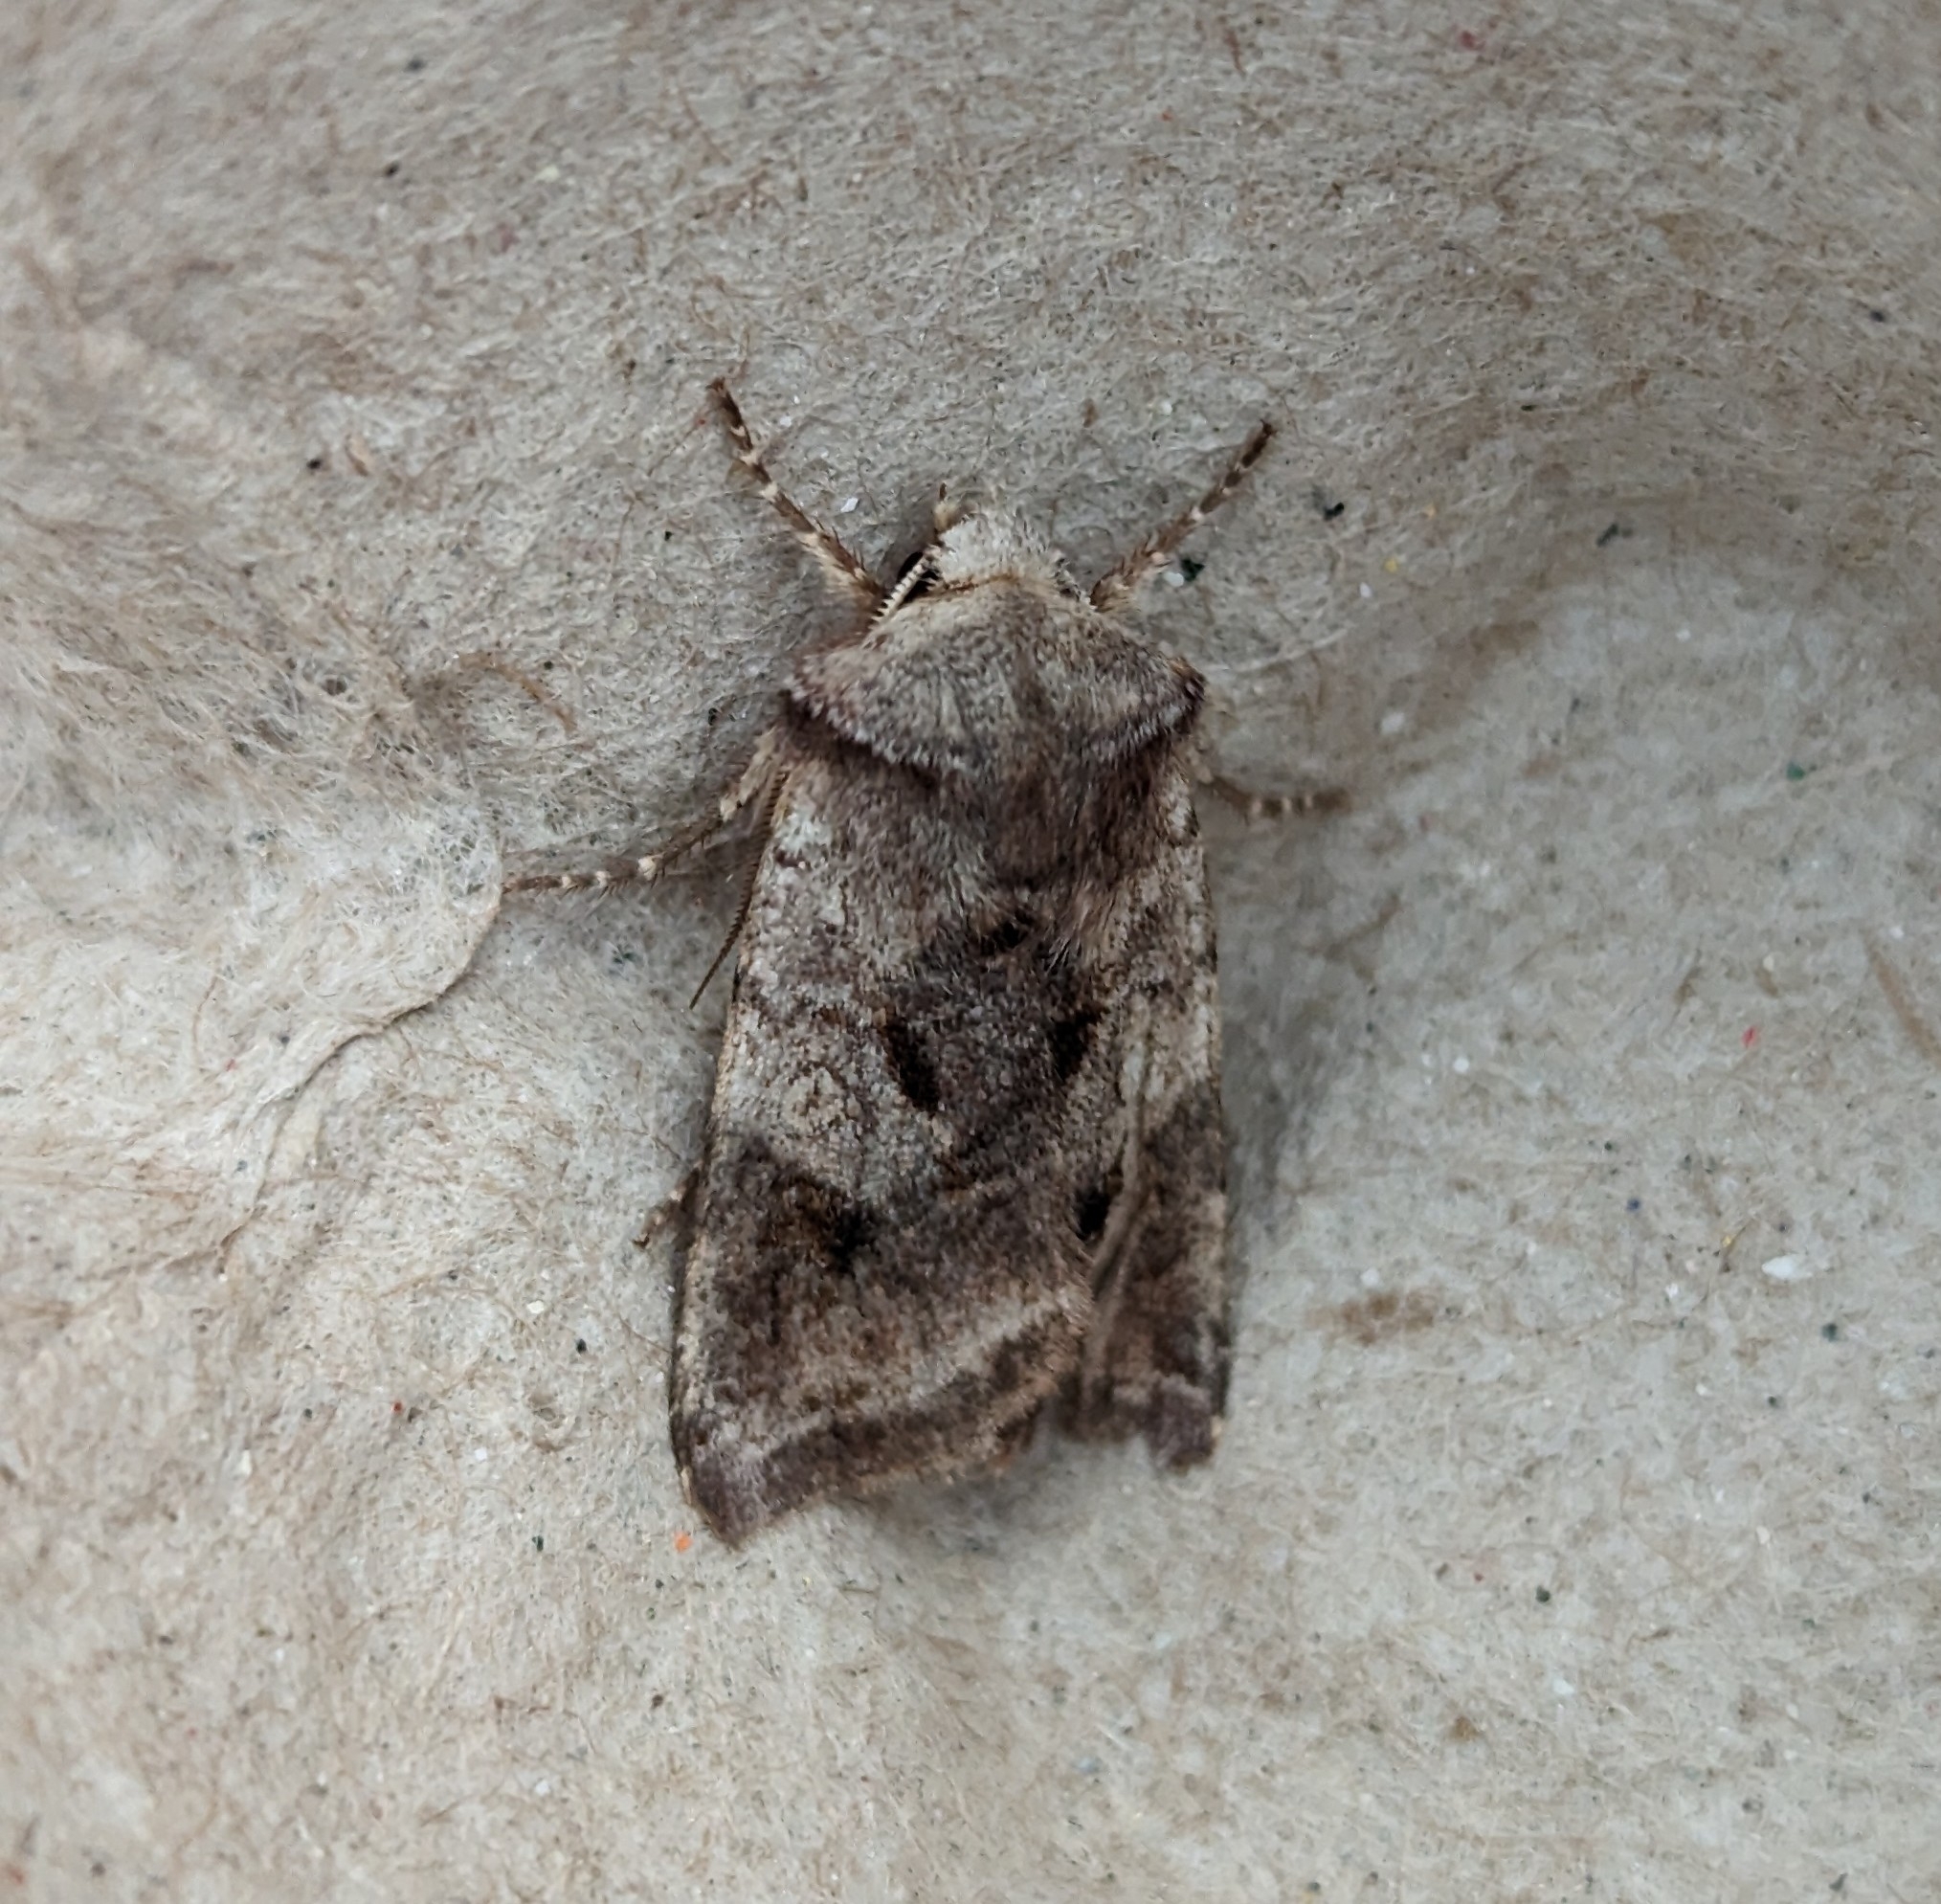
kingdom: Animalia
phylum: Arthropoda
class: Insecta
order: Lepidoptera
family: Noctuidae
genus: Cerastis
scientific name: Cerastis salicarum
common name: Willow dart
